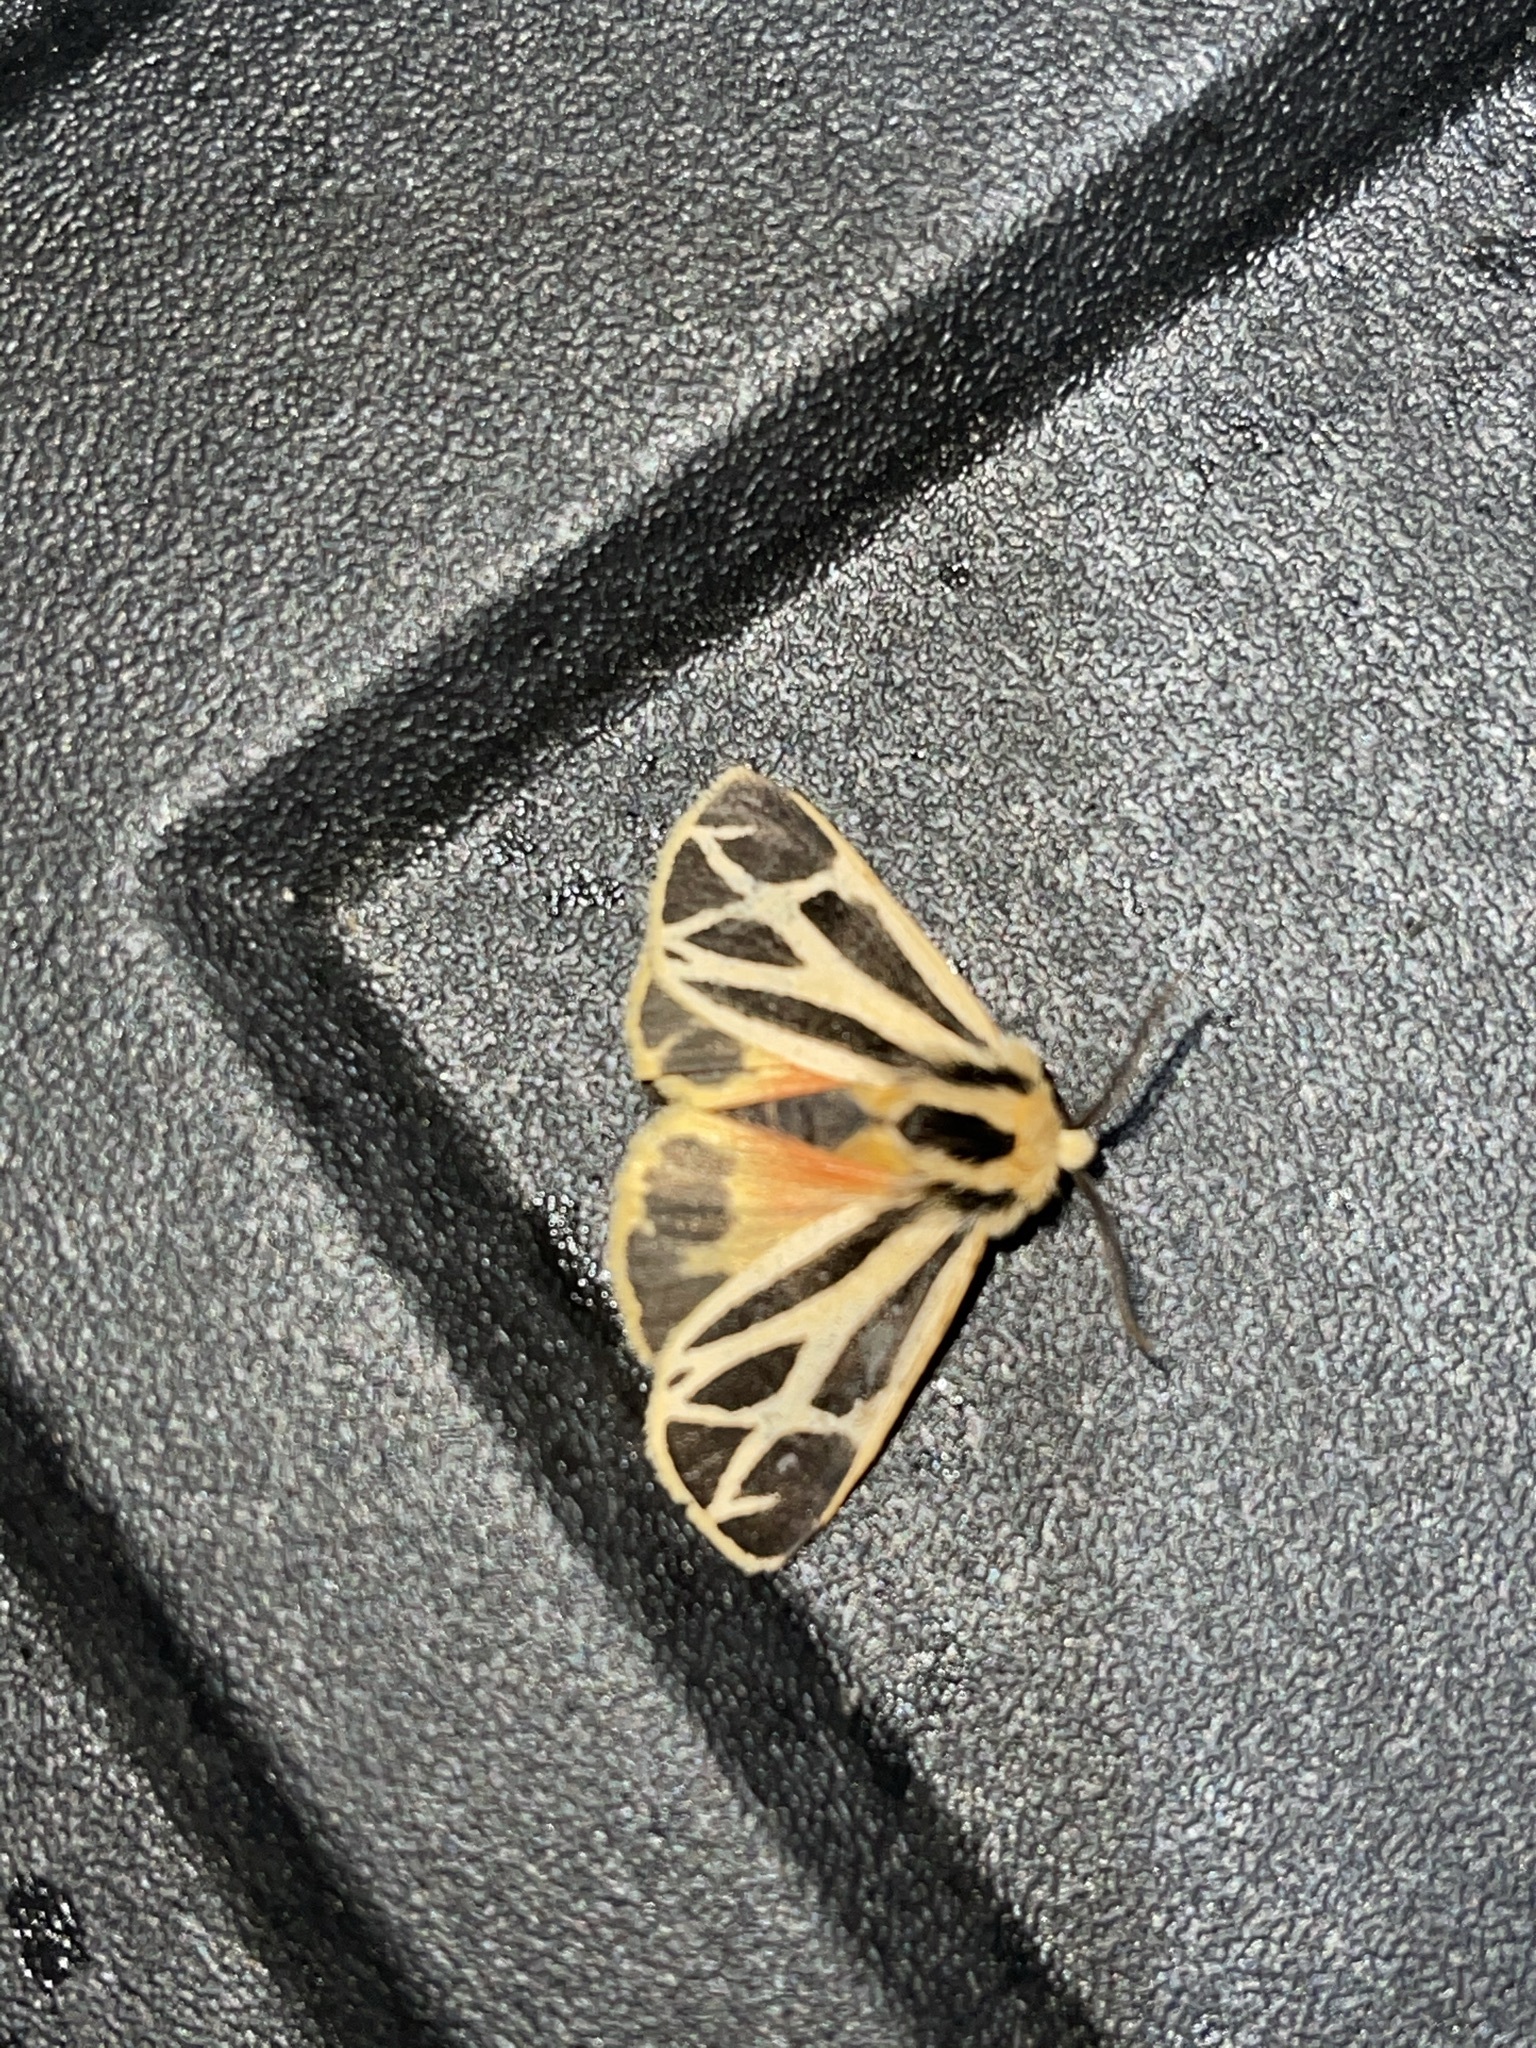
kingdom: Animalia
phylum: Arthropoda
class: Insecta
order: Lepidoptera
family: Erebidae
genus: Apantesis
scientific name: Apantesis nais
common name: Nais tiger moth
